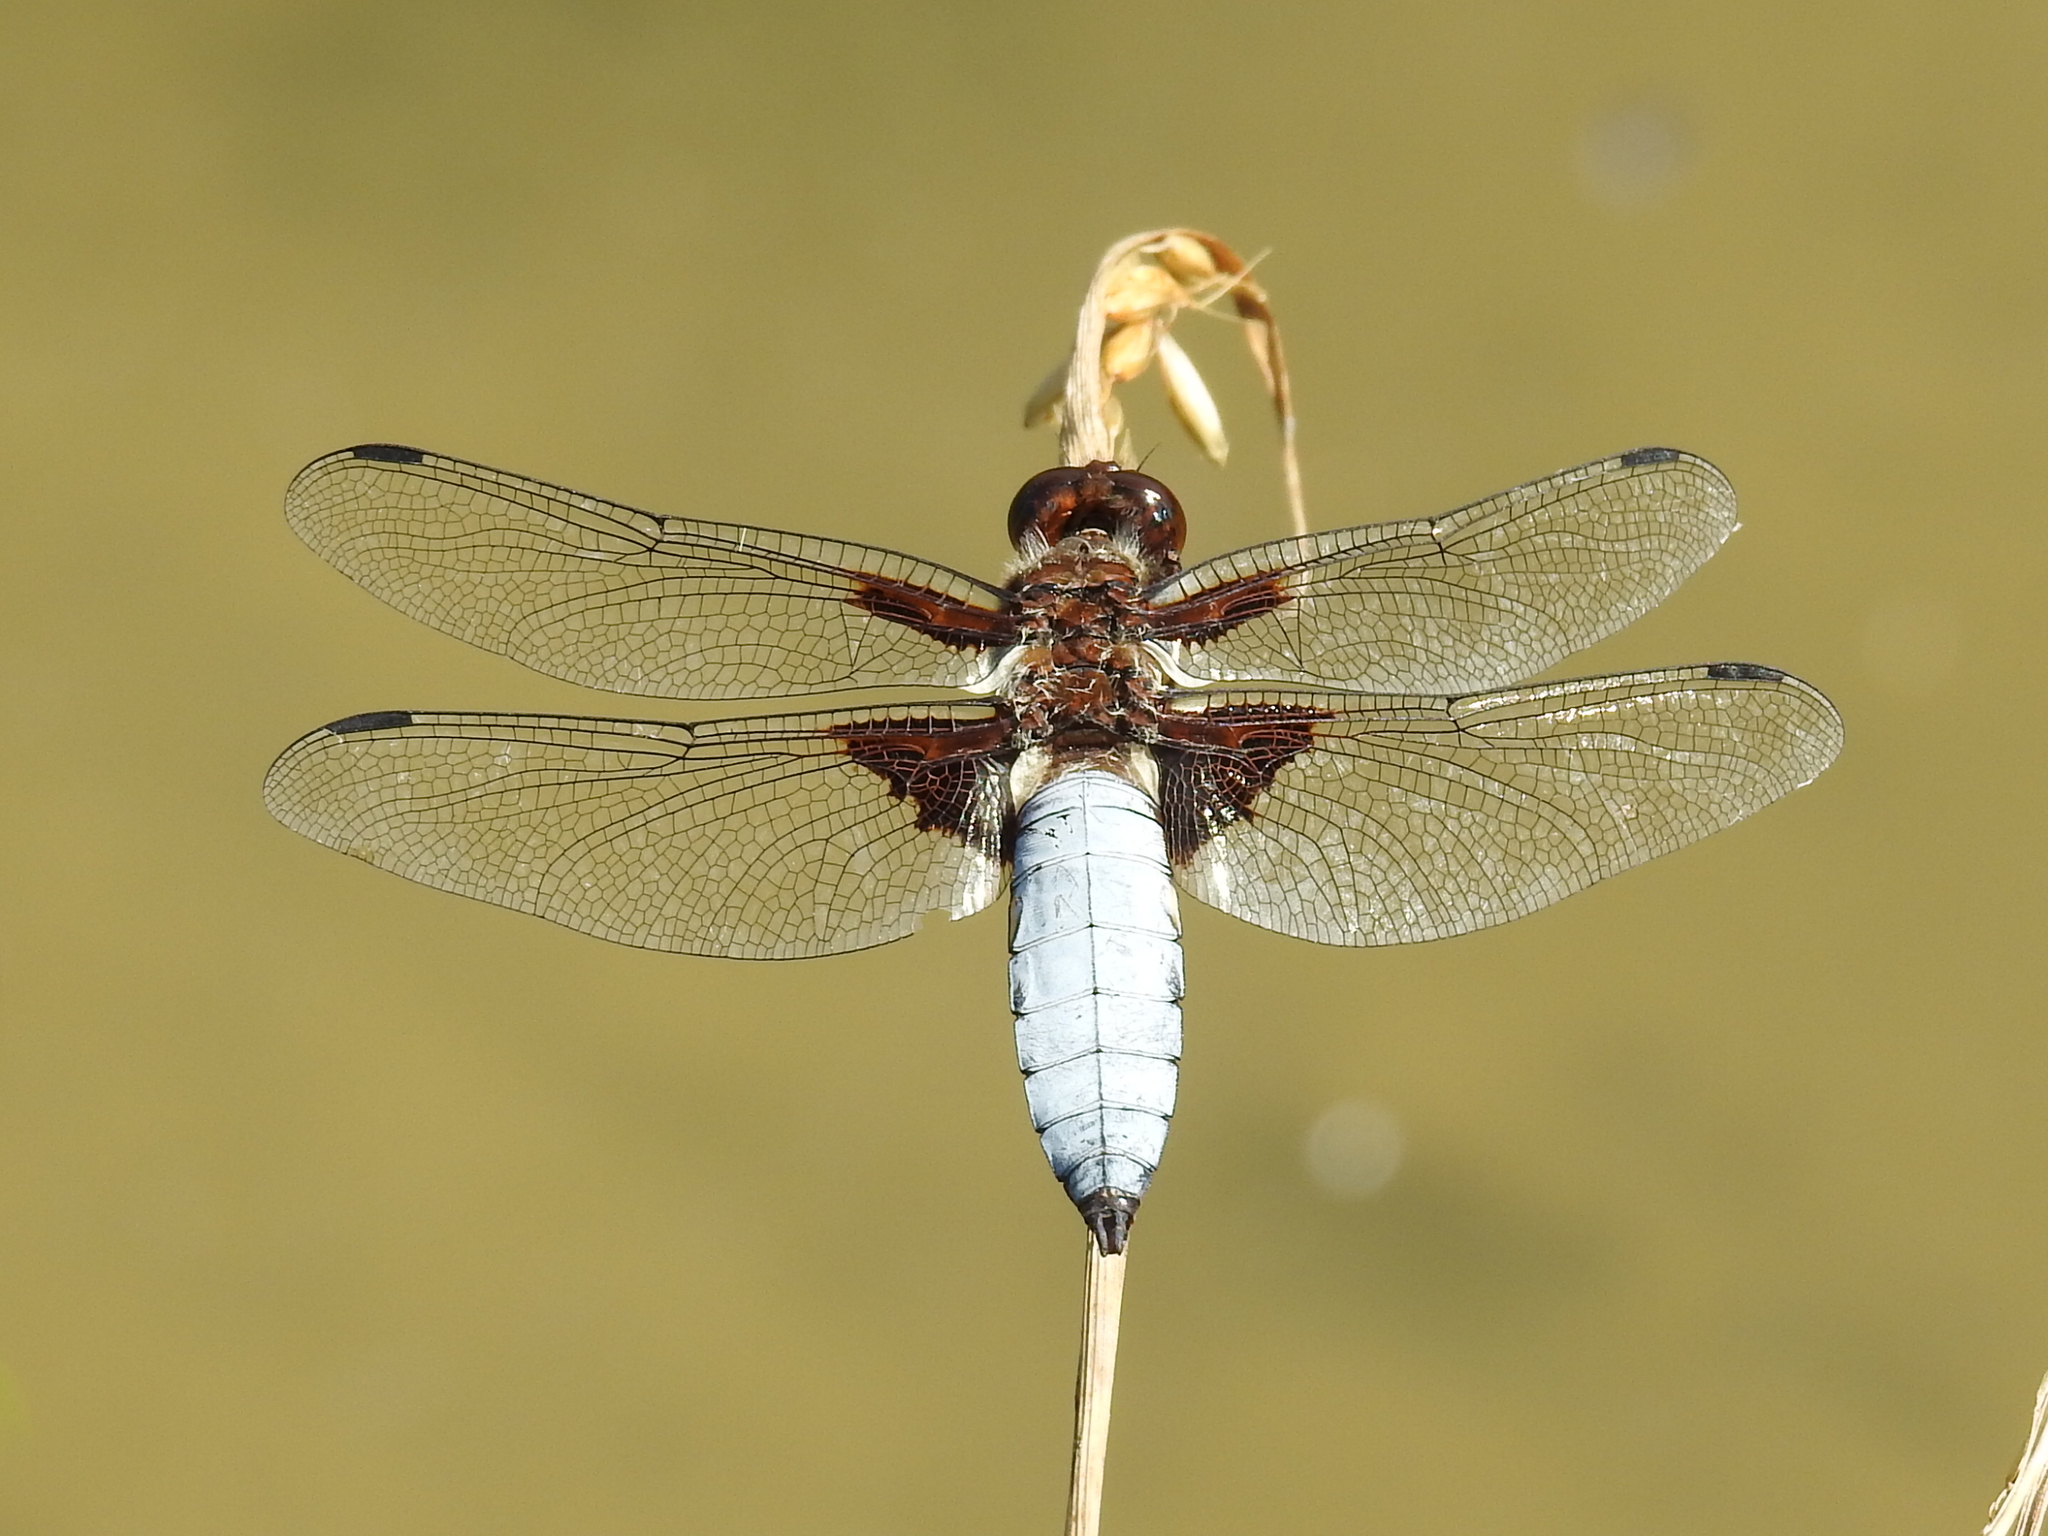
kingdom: Animalia
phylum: Arthropoda
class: Insecta
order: Odonata
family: Libellulidae
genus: Libellula
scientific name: Libellula depressa
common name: Broad-bodied chaser
